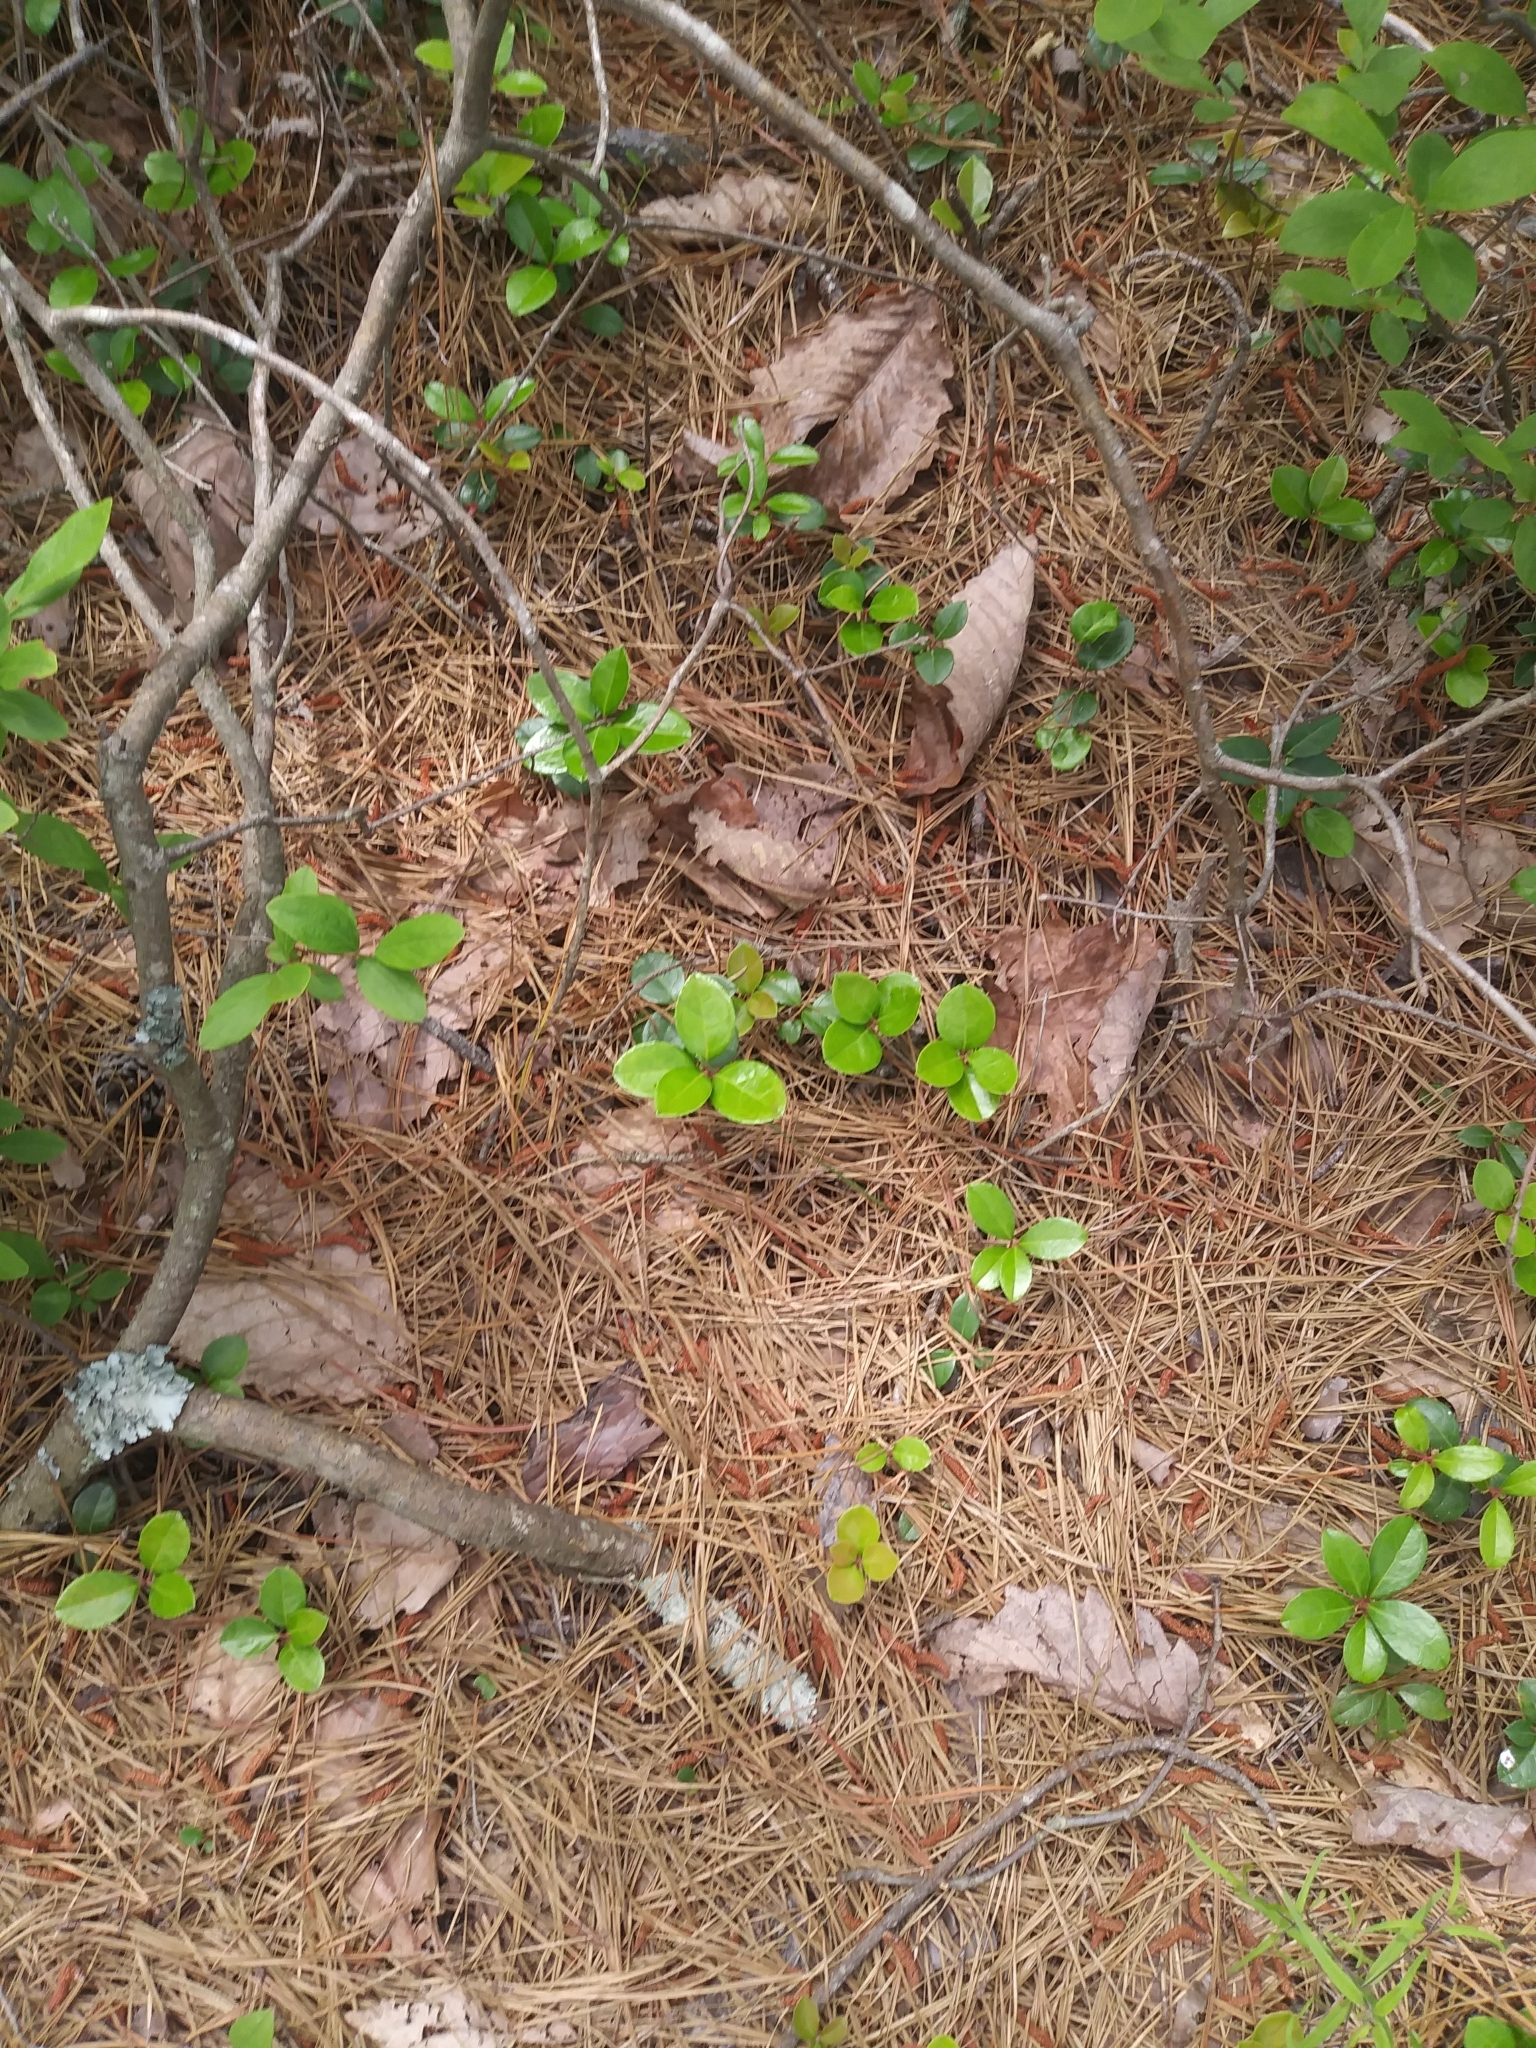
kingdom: Plantae
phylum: Tracheophyta
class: Magnoliopsida
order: Ericales
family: Ericaceae
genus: Gaultheria
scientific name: Gaultheria procumbens
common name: Checkerberry
